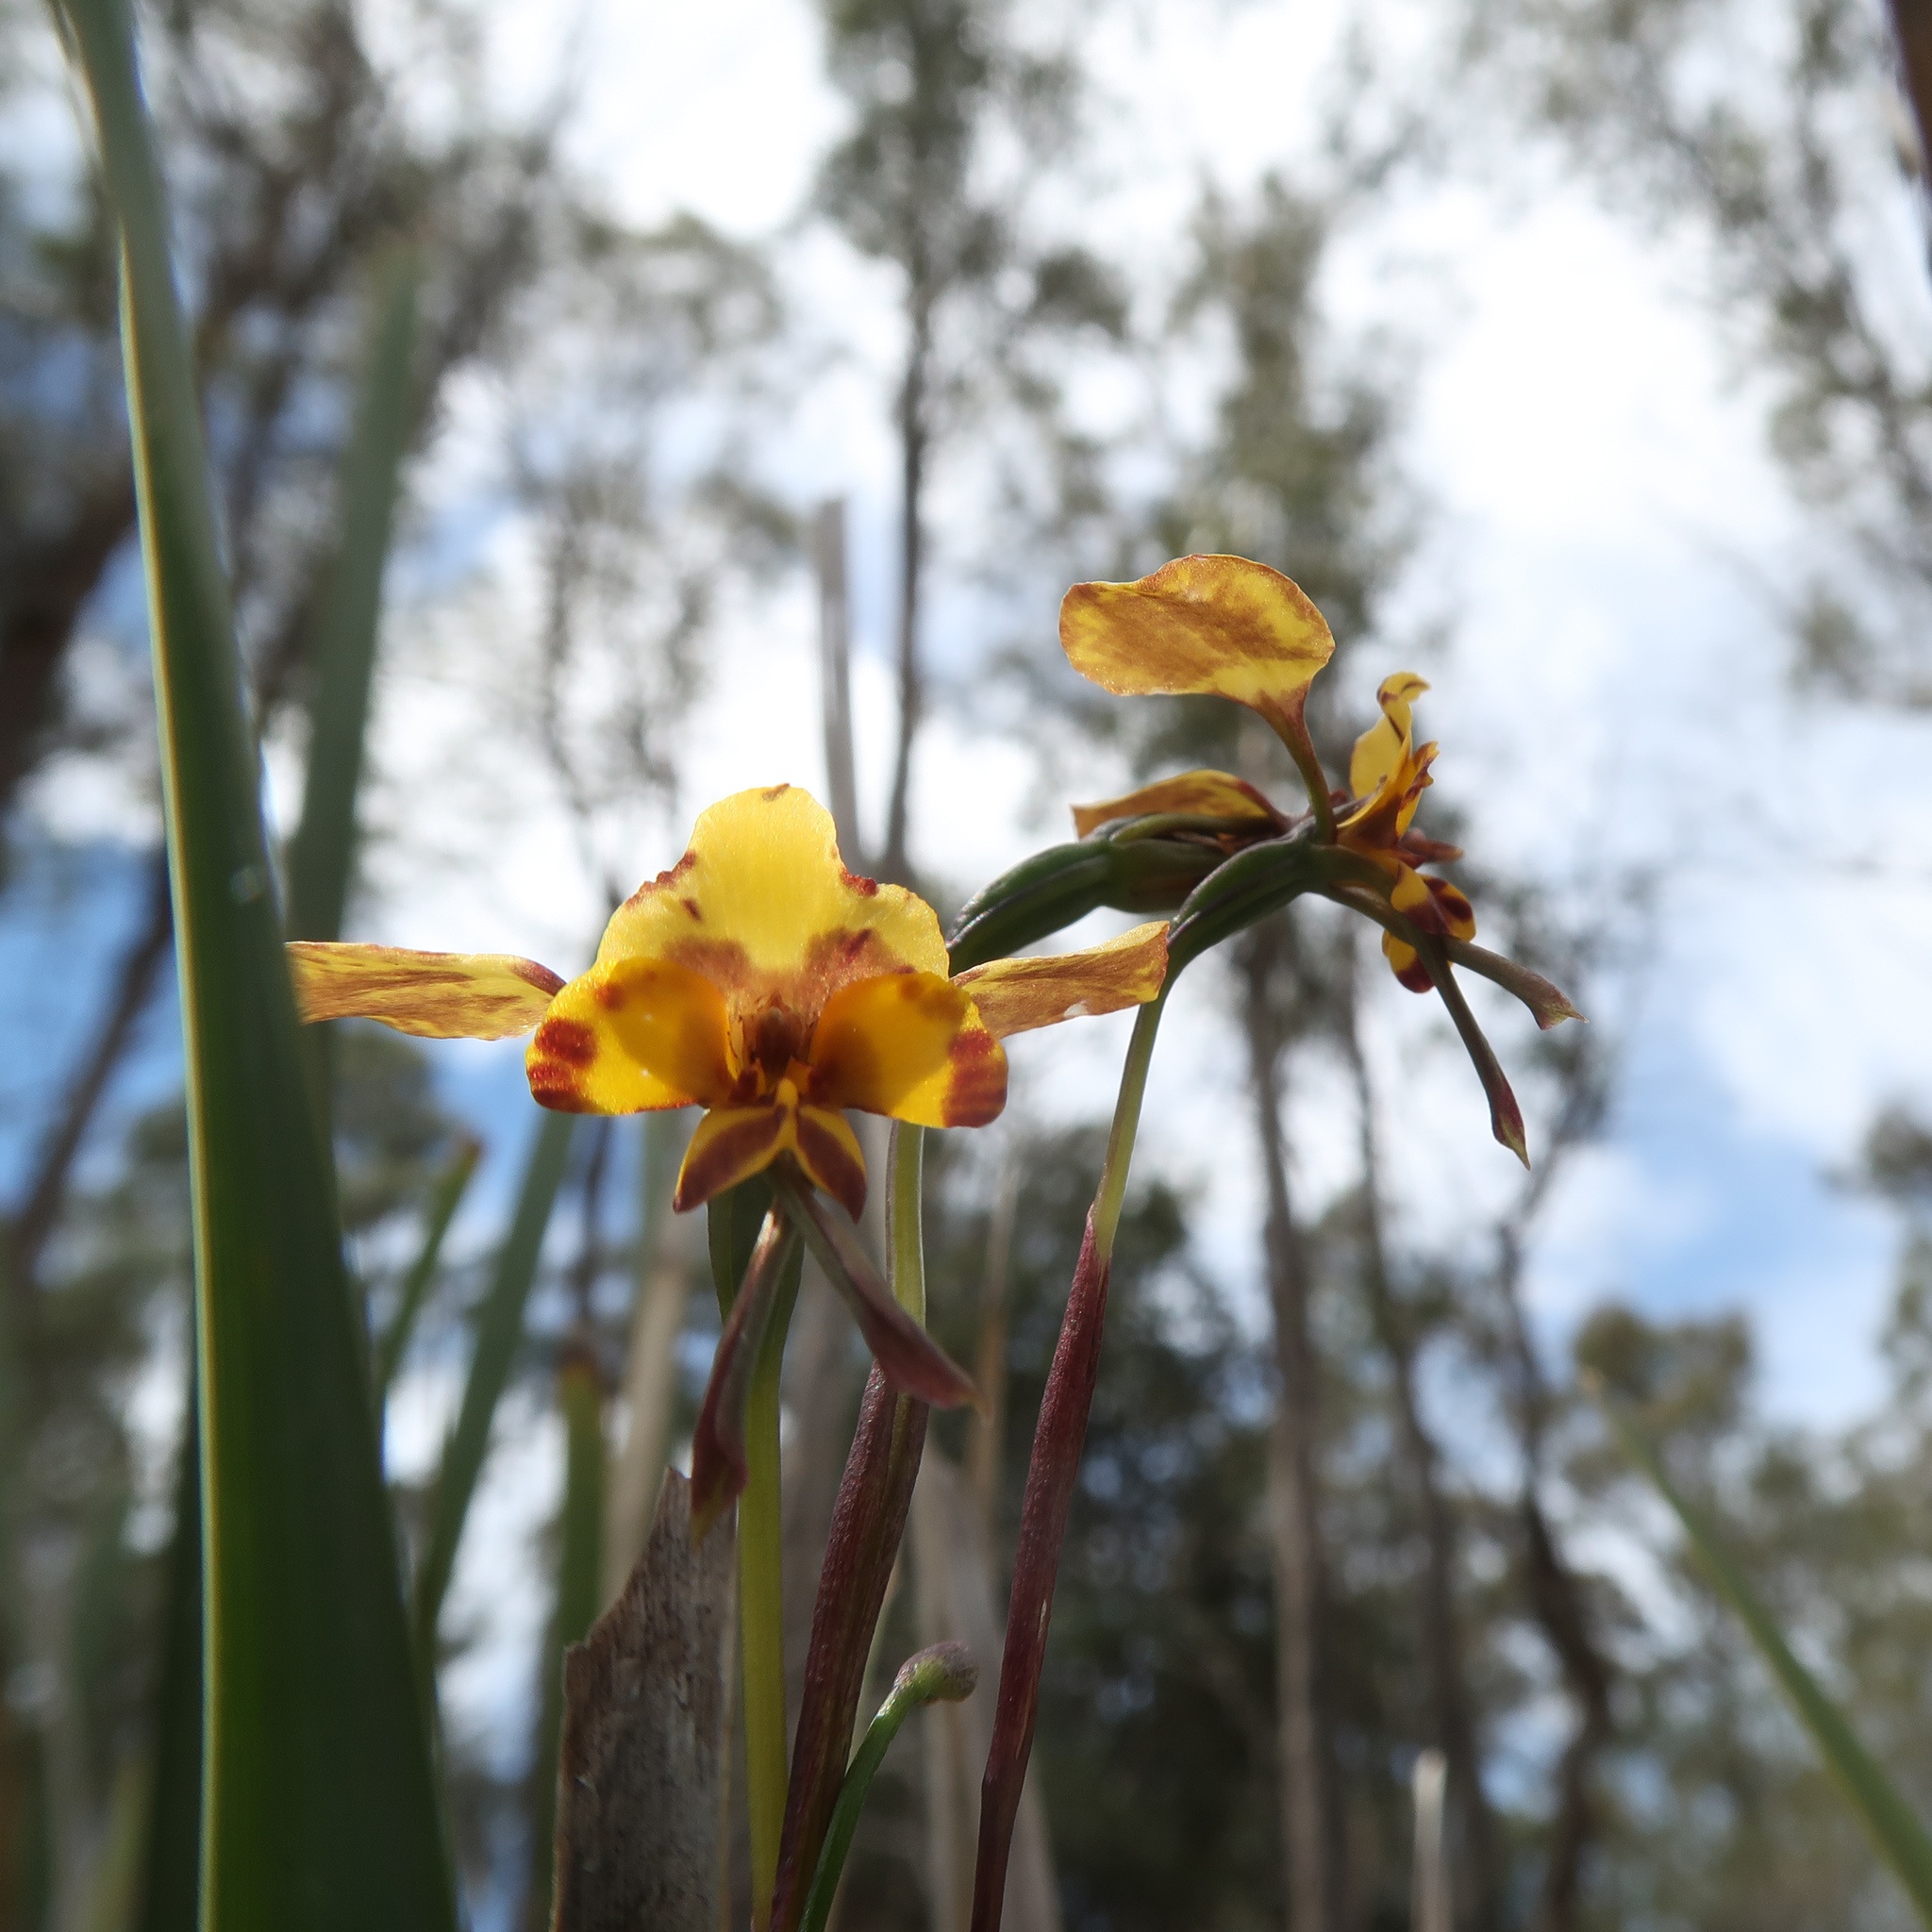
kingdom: Plantae
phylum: Tracheophyta
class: Liliopsida
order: Asparagales
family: Orchidaceae
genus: Diuris
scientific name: Diuris pardina
